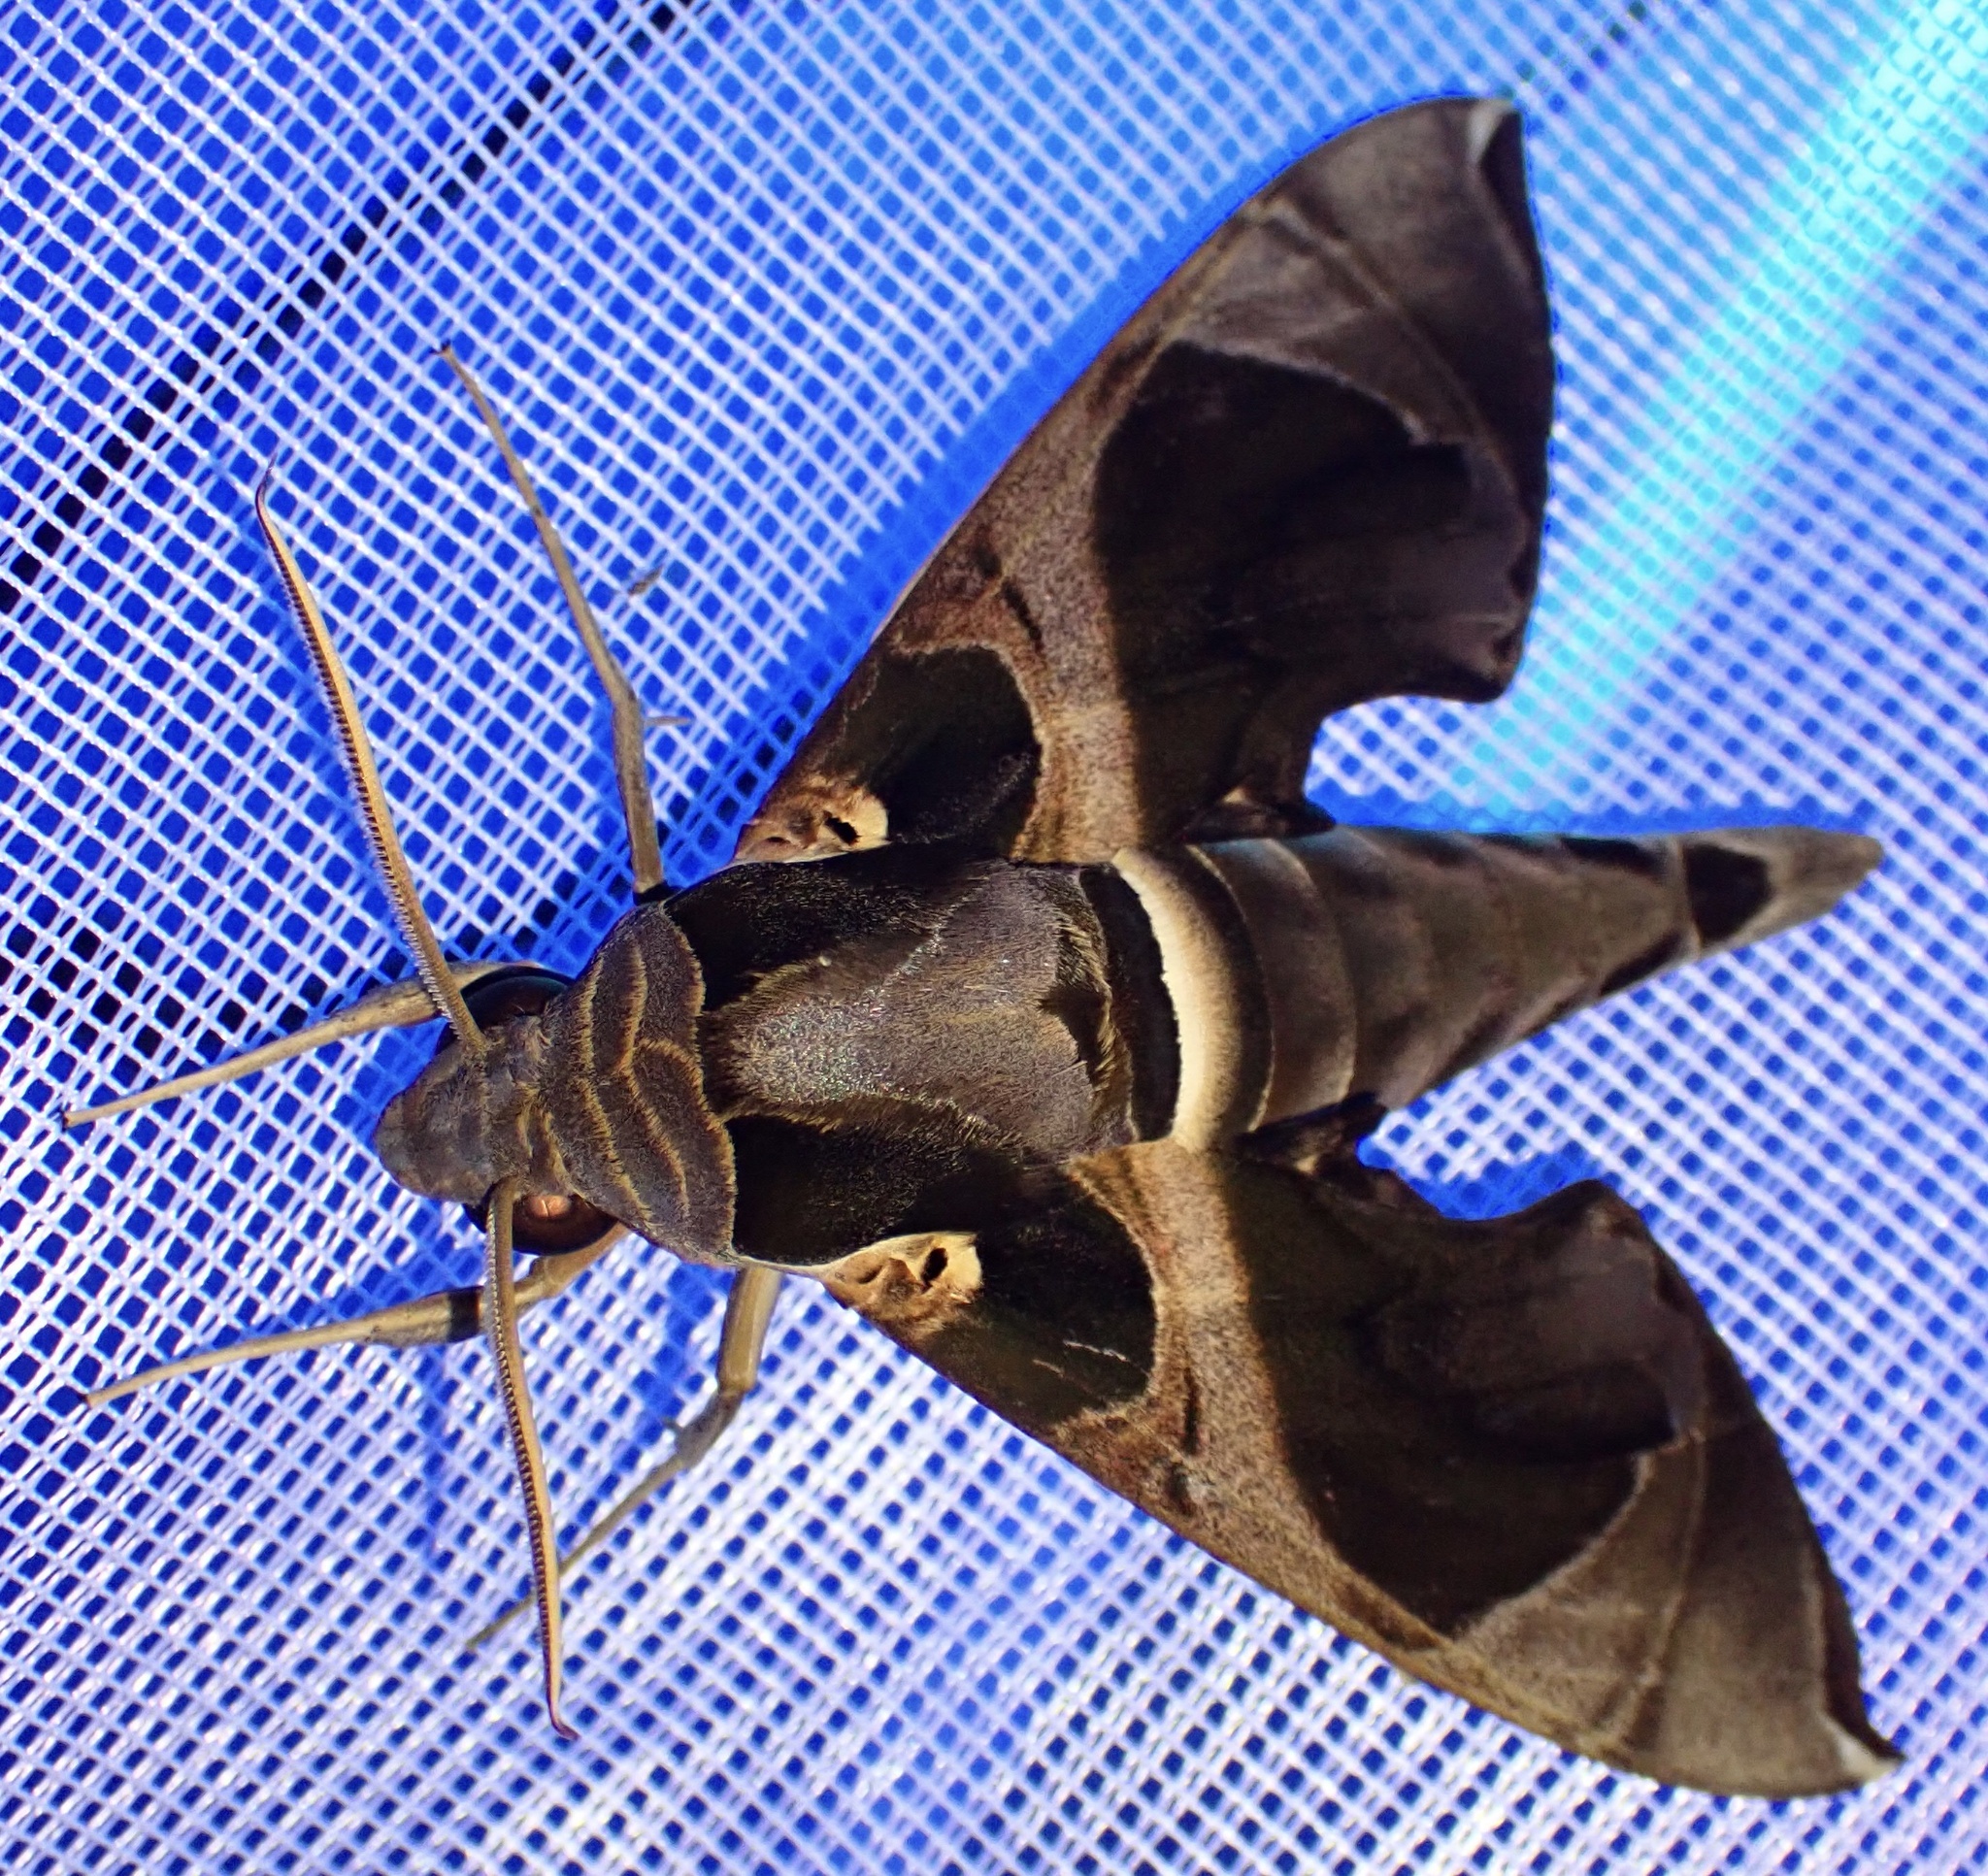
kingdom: Animalia
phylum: Arthropoda
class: Insecta
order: Lepidoptera
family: Sphingidae
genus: Daphnis
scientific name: Daphnis moorei
